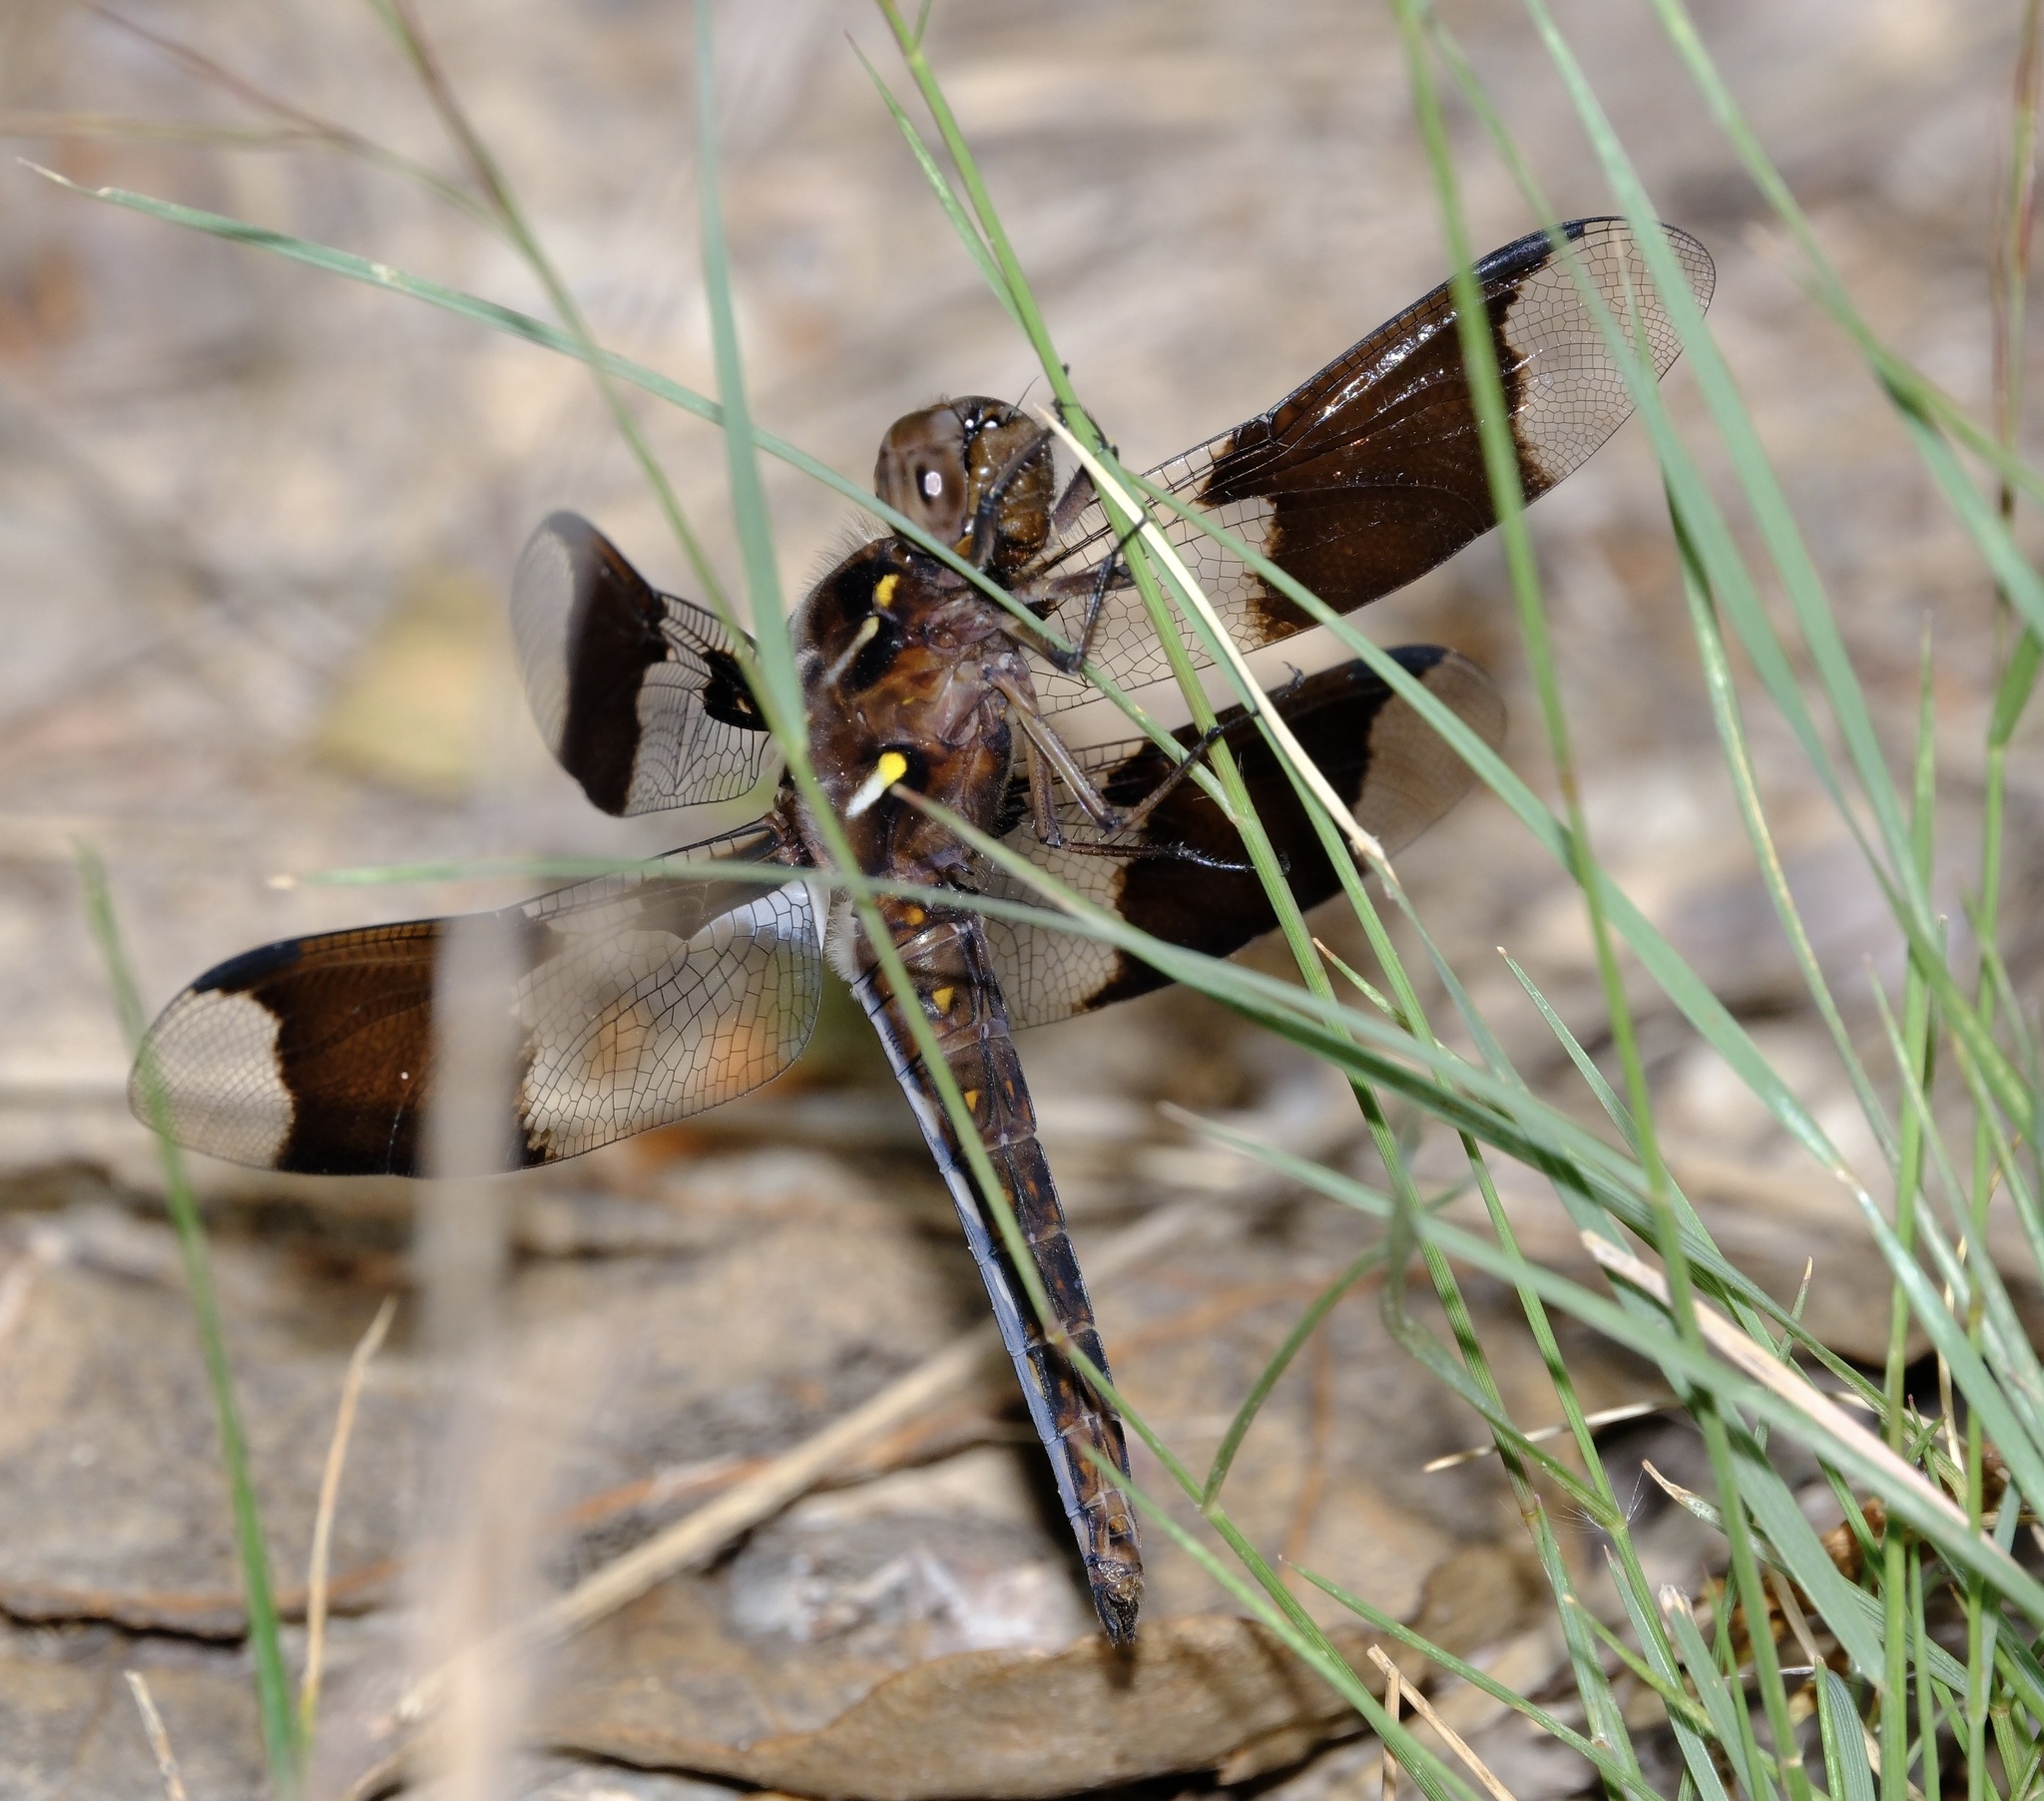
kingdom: Animalia
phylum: Arthropoda
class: Insecta
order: Odonata
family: Libellulidae
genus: Plathemis
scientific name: Plathemis lydia
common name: Common whitetail
